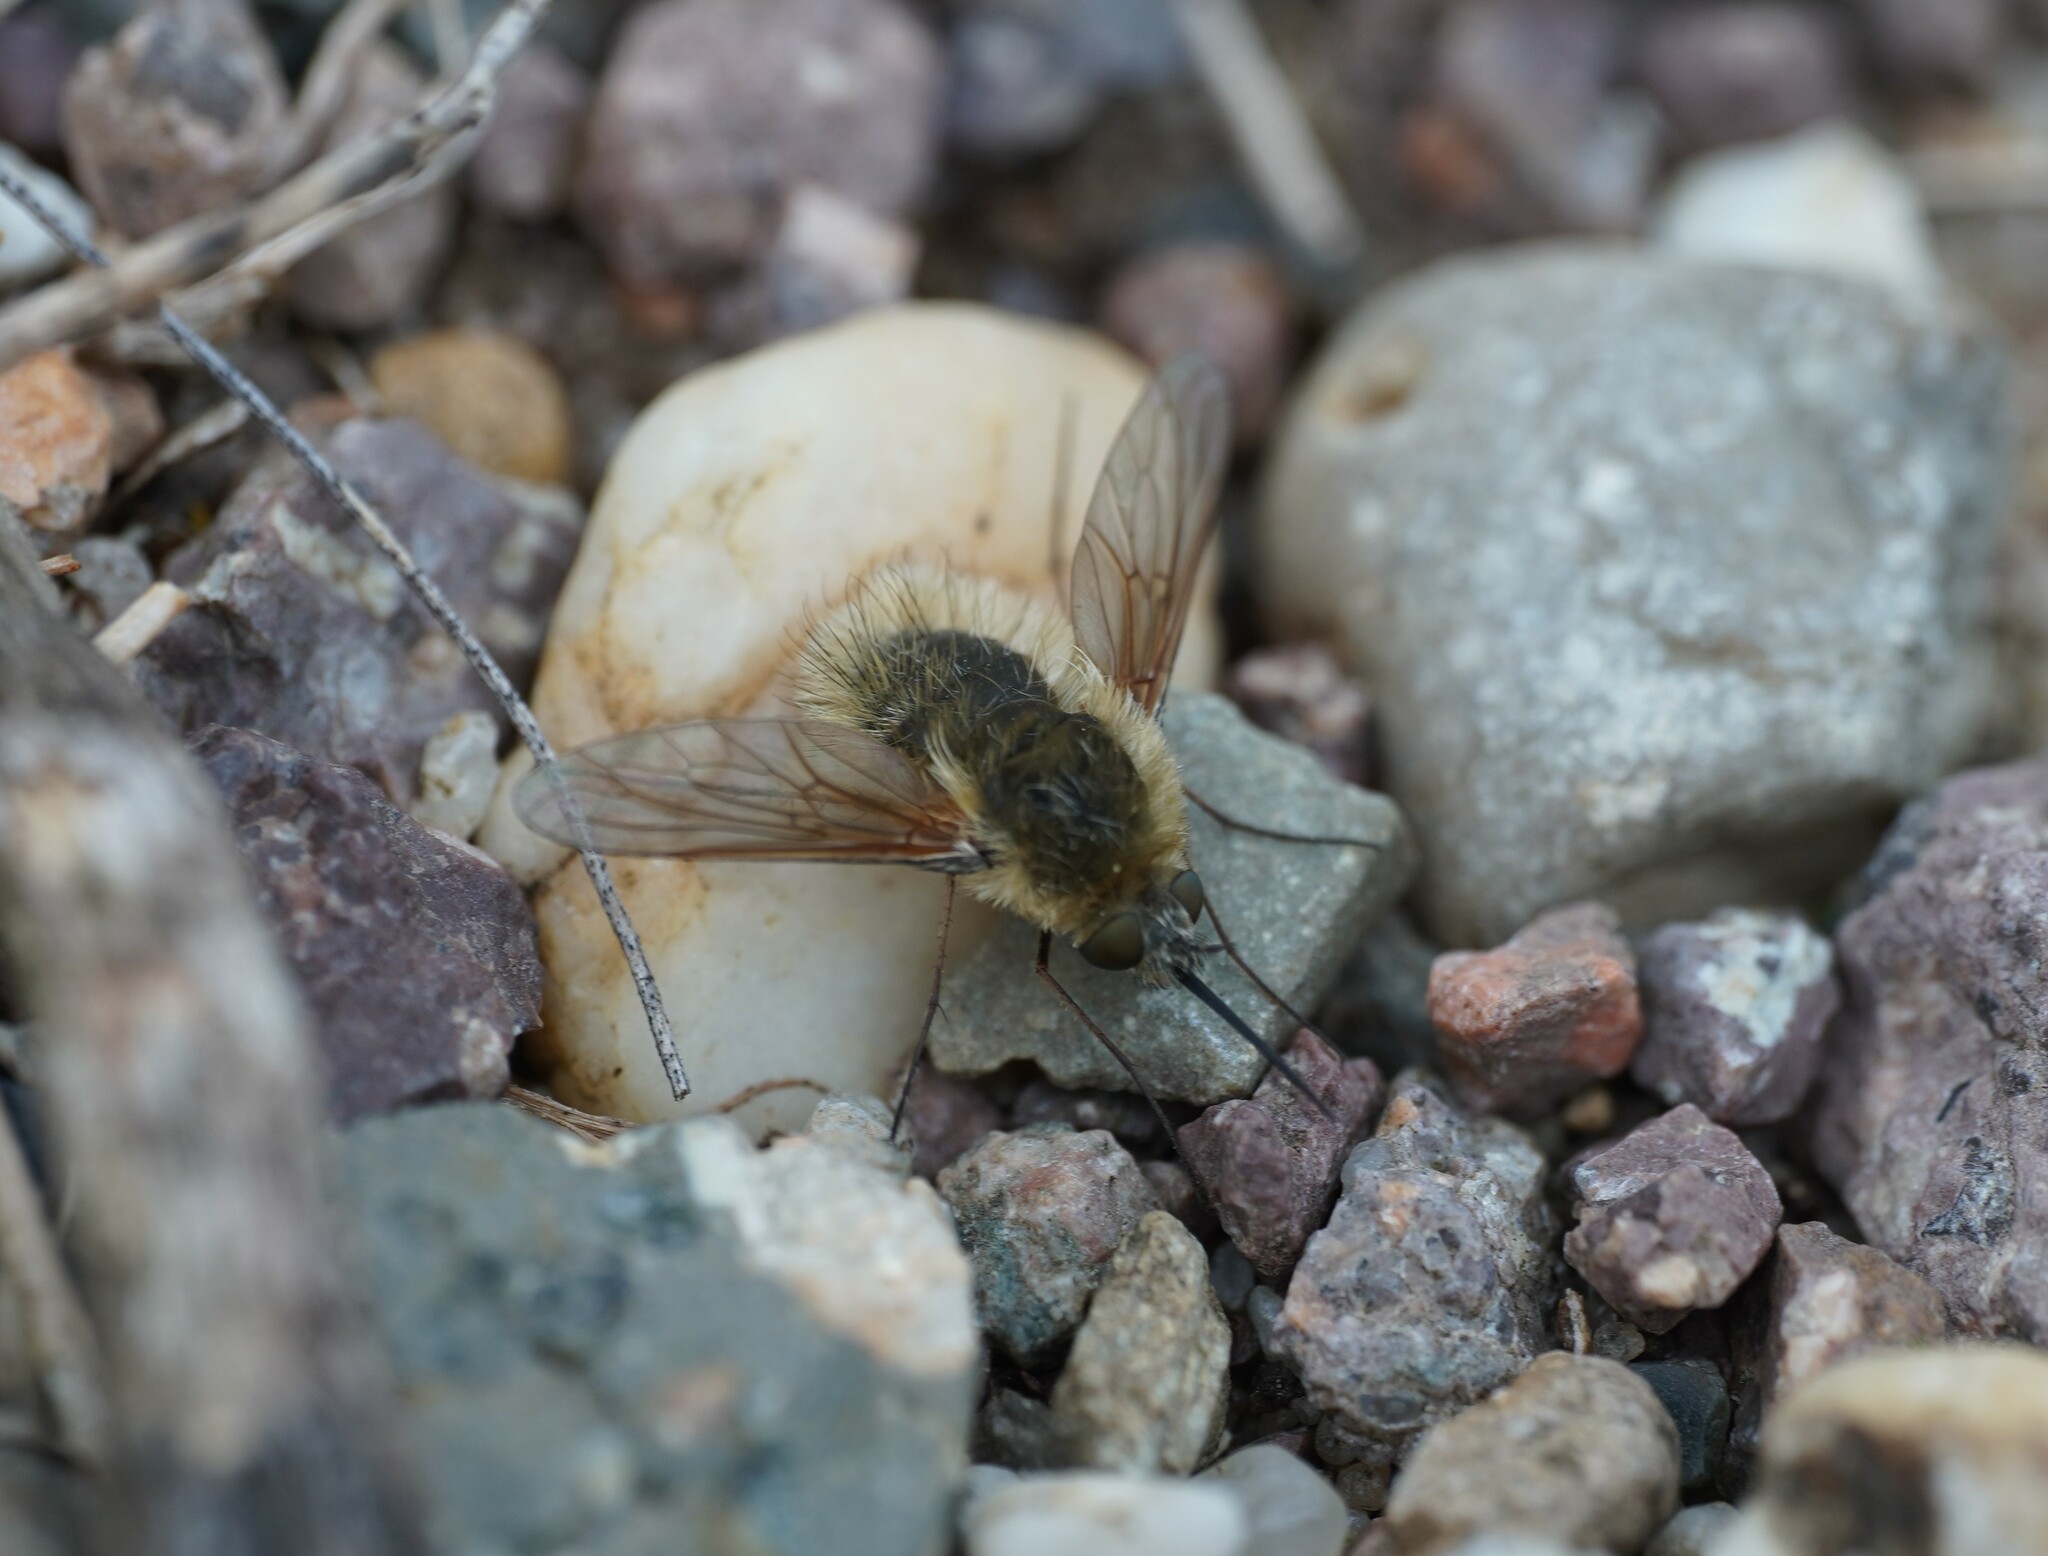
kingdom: Animalia
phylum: Arthropoda
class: Insecta
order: Diptera
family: Bombyliidae
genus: Systoechus
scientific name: Systoechus ctenopterus
